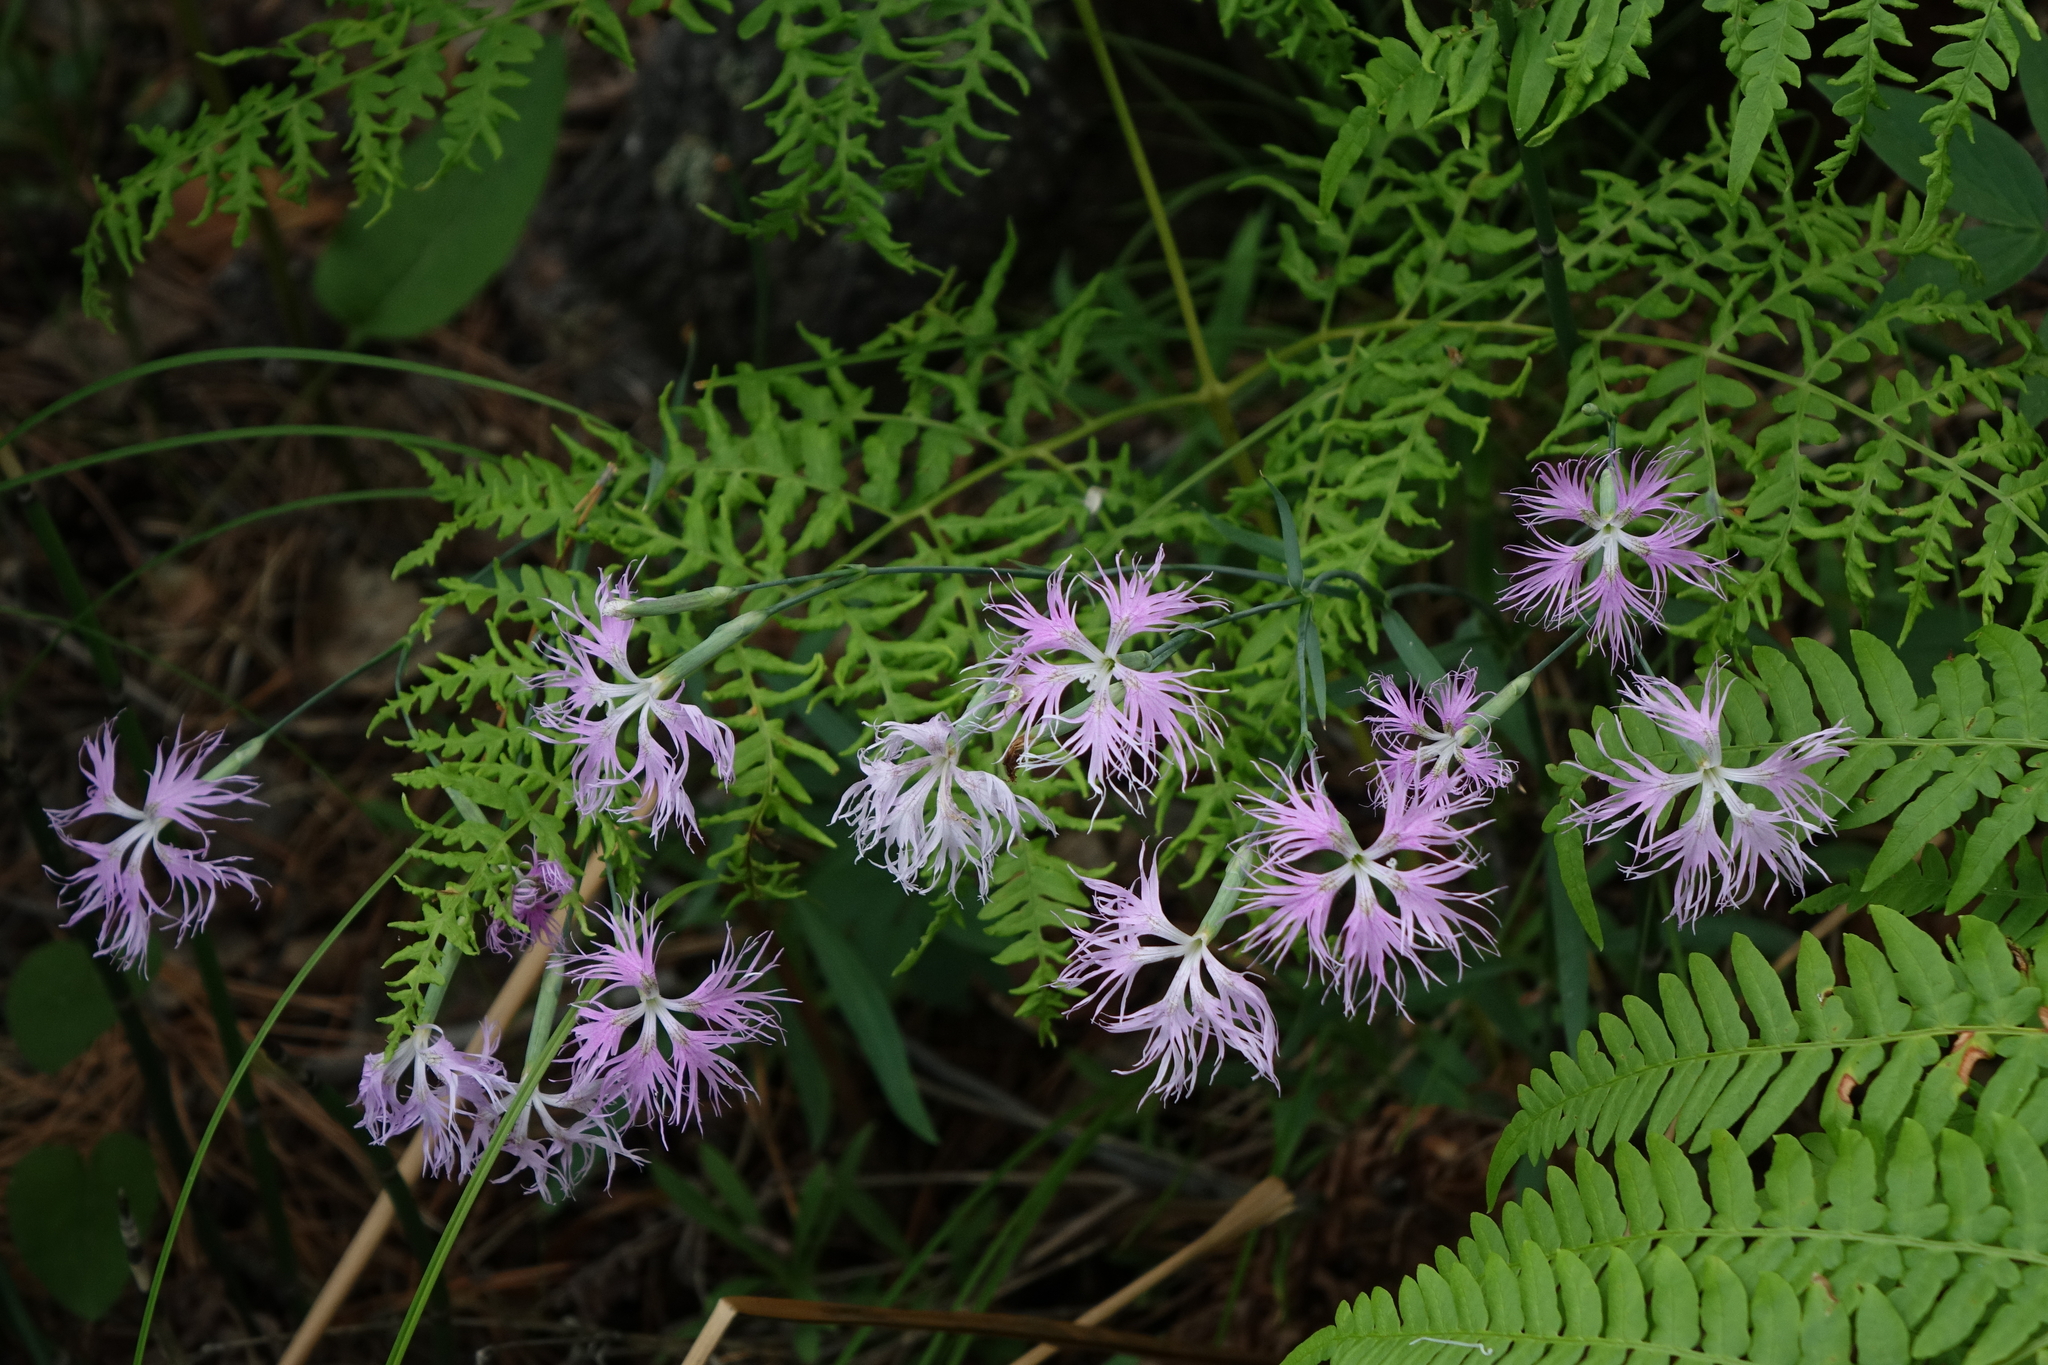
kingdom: Plantae
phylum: Tracheophyta
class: Magnoliopsida
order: Caryophyllales
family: Caryophyllaceae
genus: Dianthus
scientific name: Dianthus superbus
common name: Fringed pink
